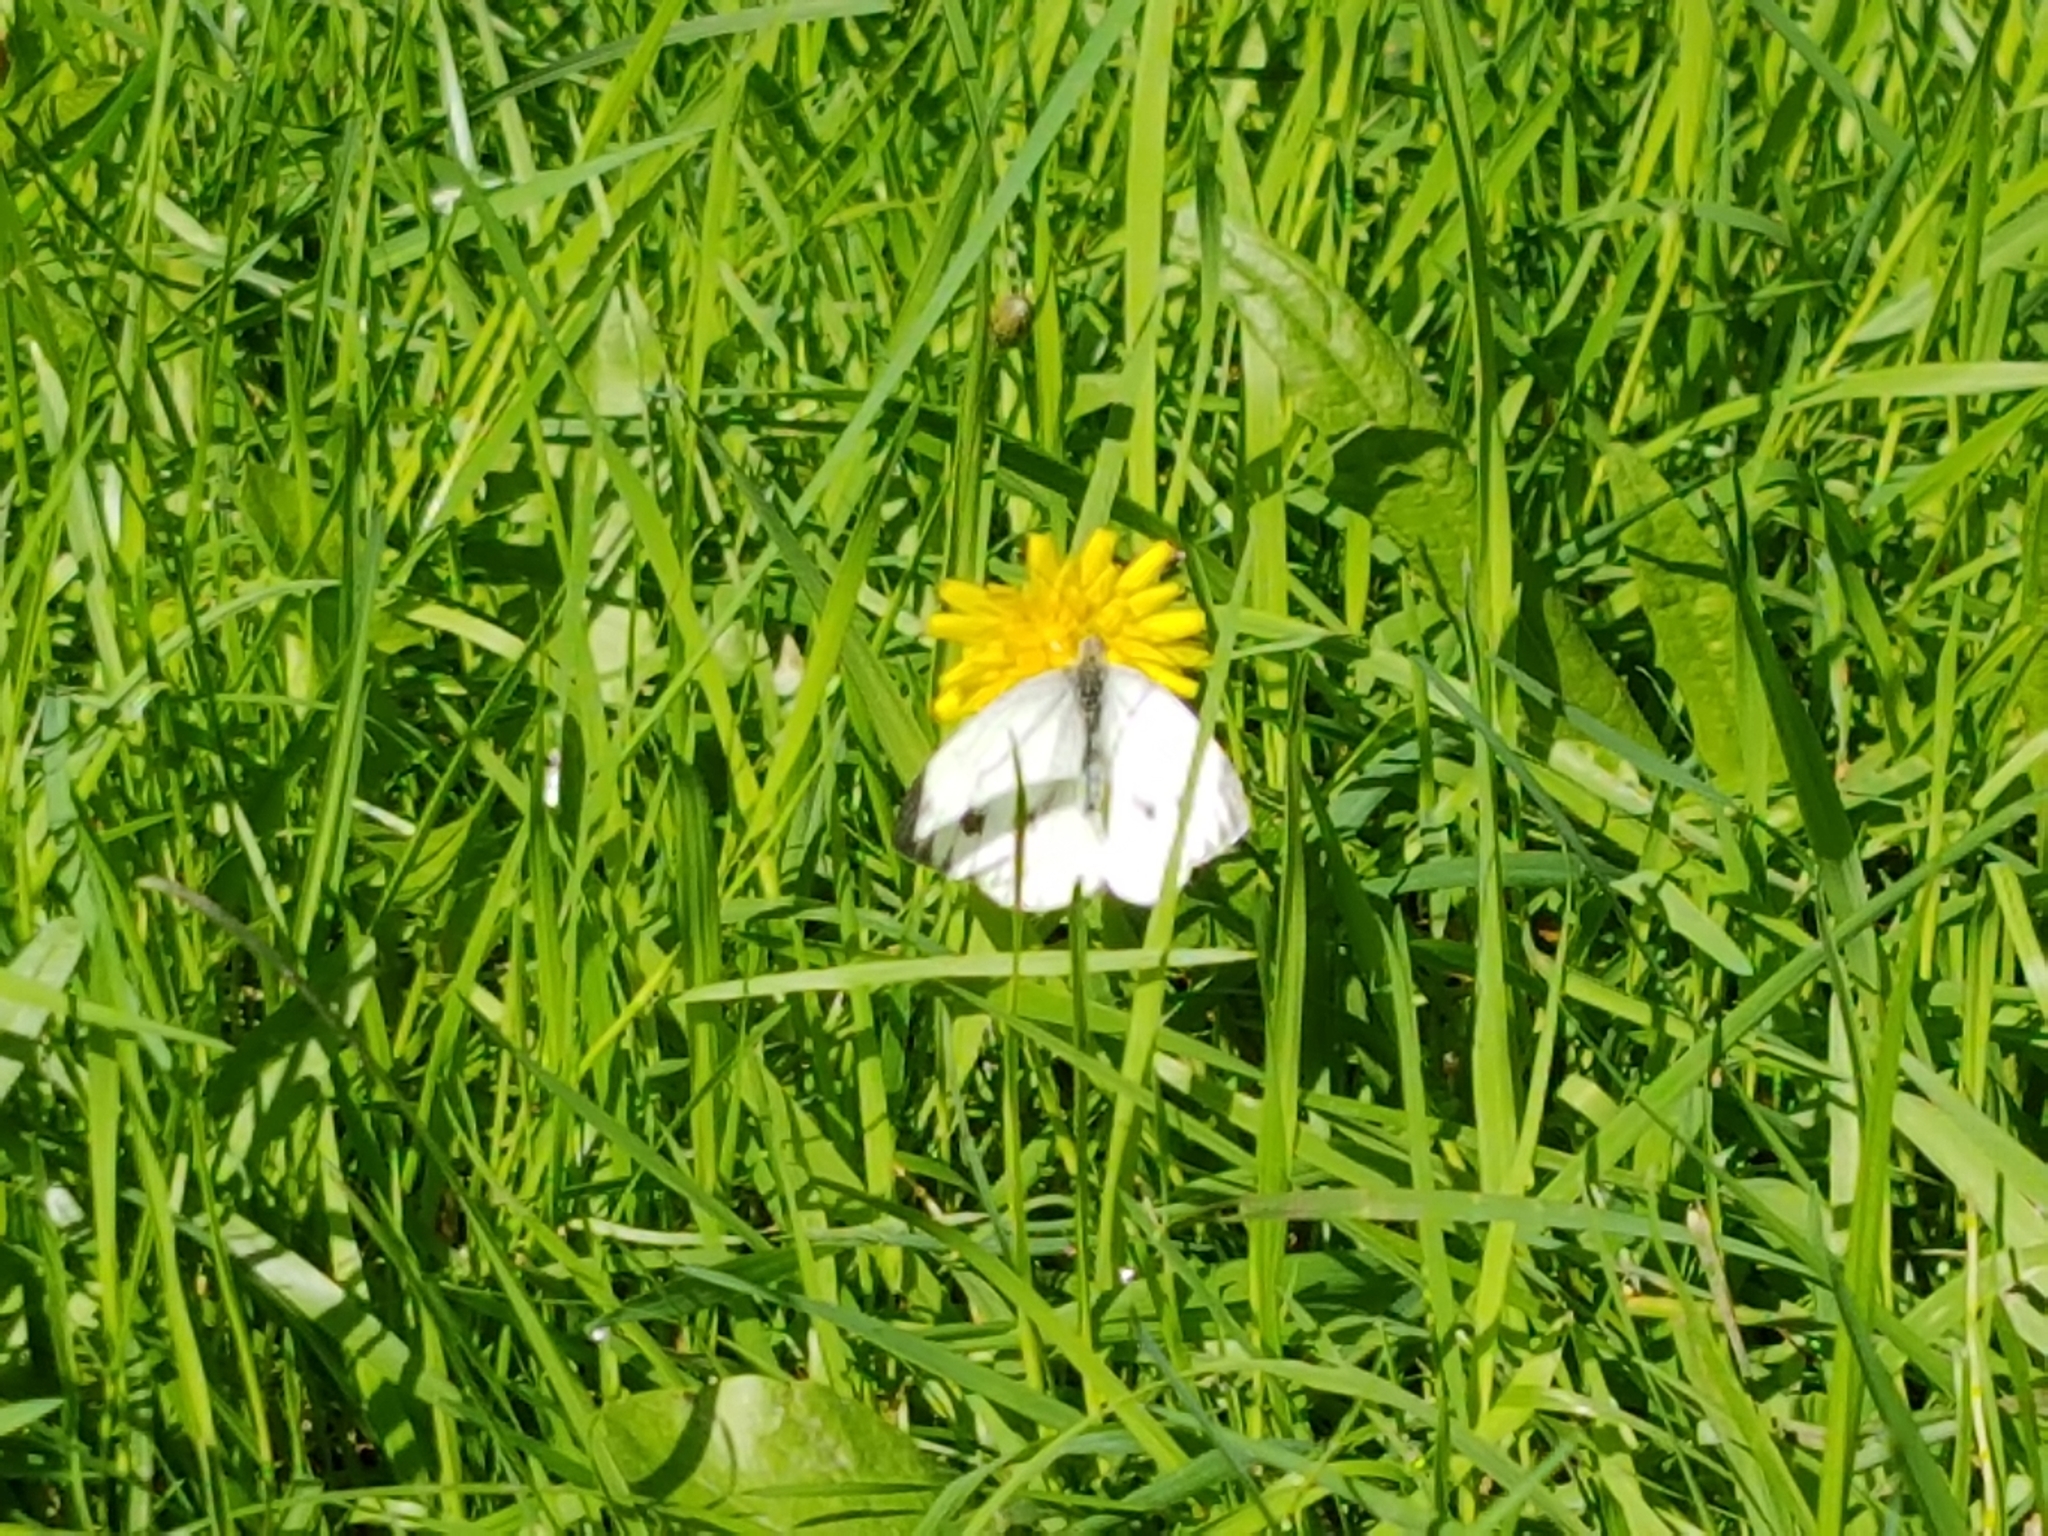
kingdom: Animalia
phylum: Arthropoda
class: Insecta
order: Lepidoptera
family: Pieridae
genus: Pieris
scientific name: Pieris napi
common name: Green-veined white
